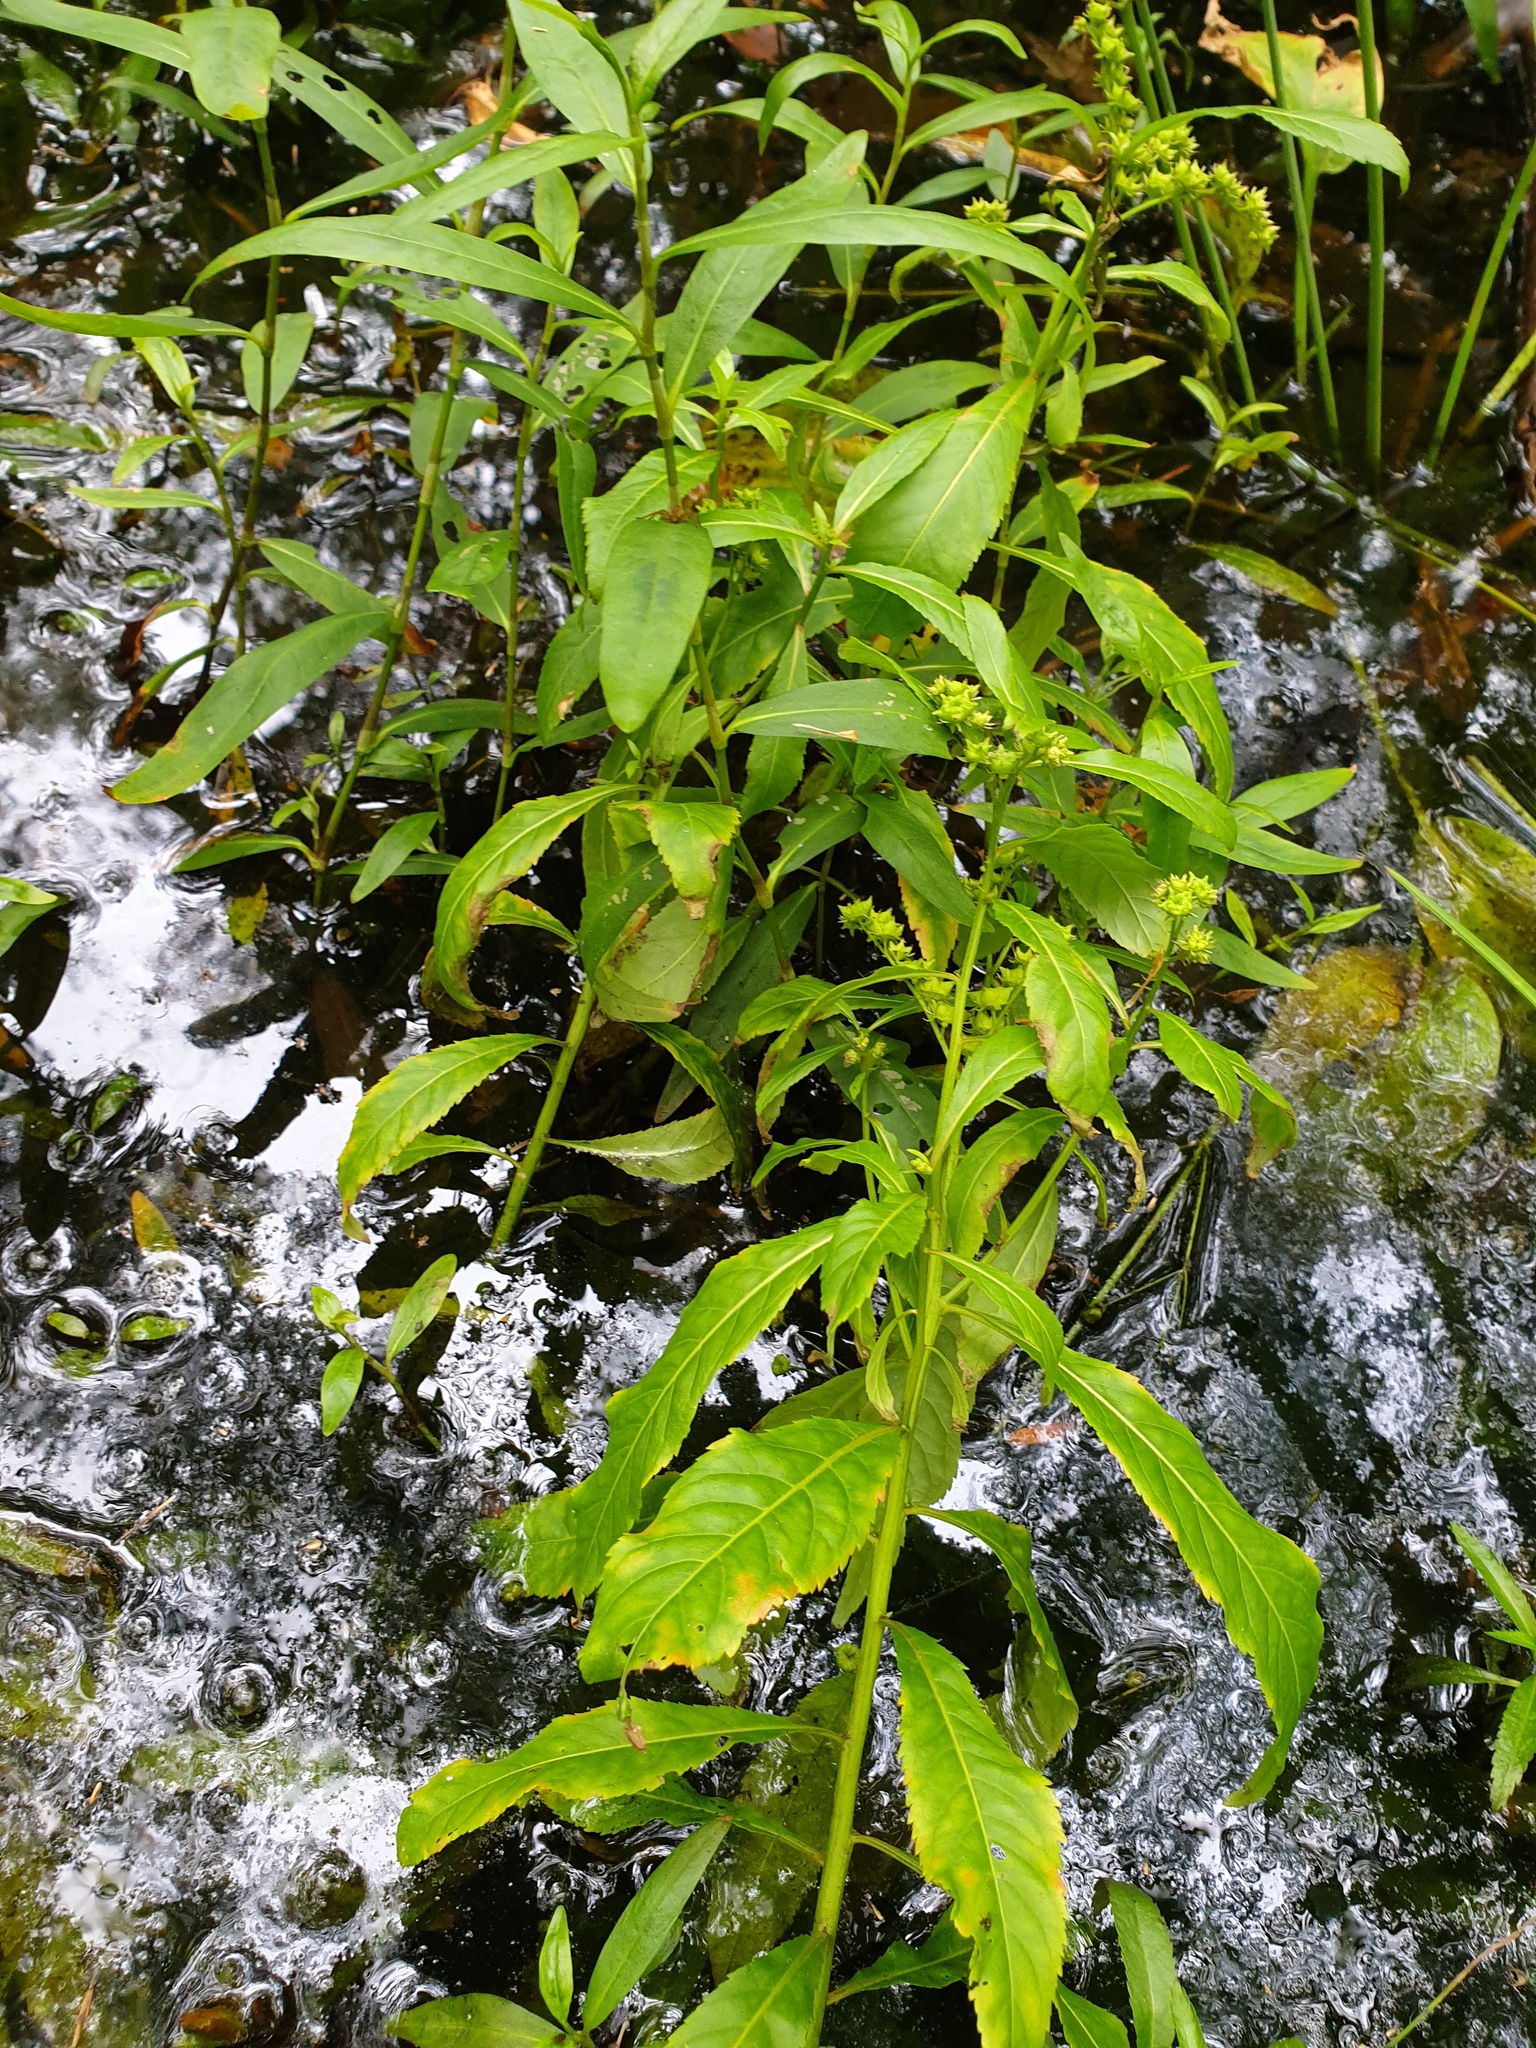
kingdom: Plantae
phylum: Tracheophyta
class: Magnoliopsida
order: Saxifragales
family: Penthoraceae
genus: Penthorum
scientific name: Penthorum sedoides
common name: Ditch stonecrop
